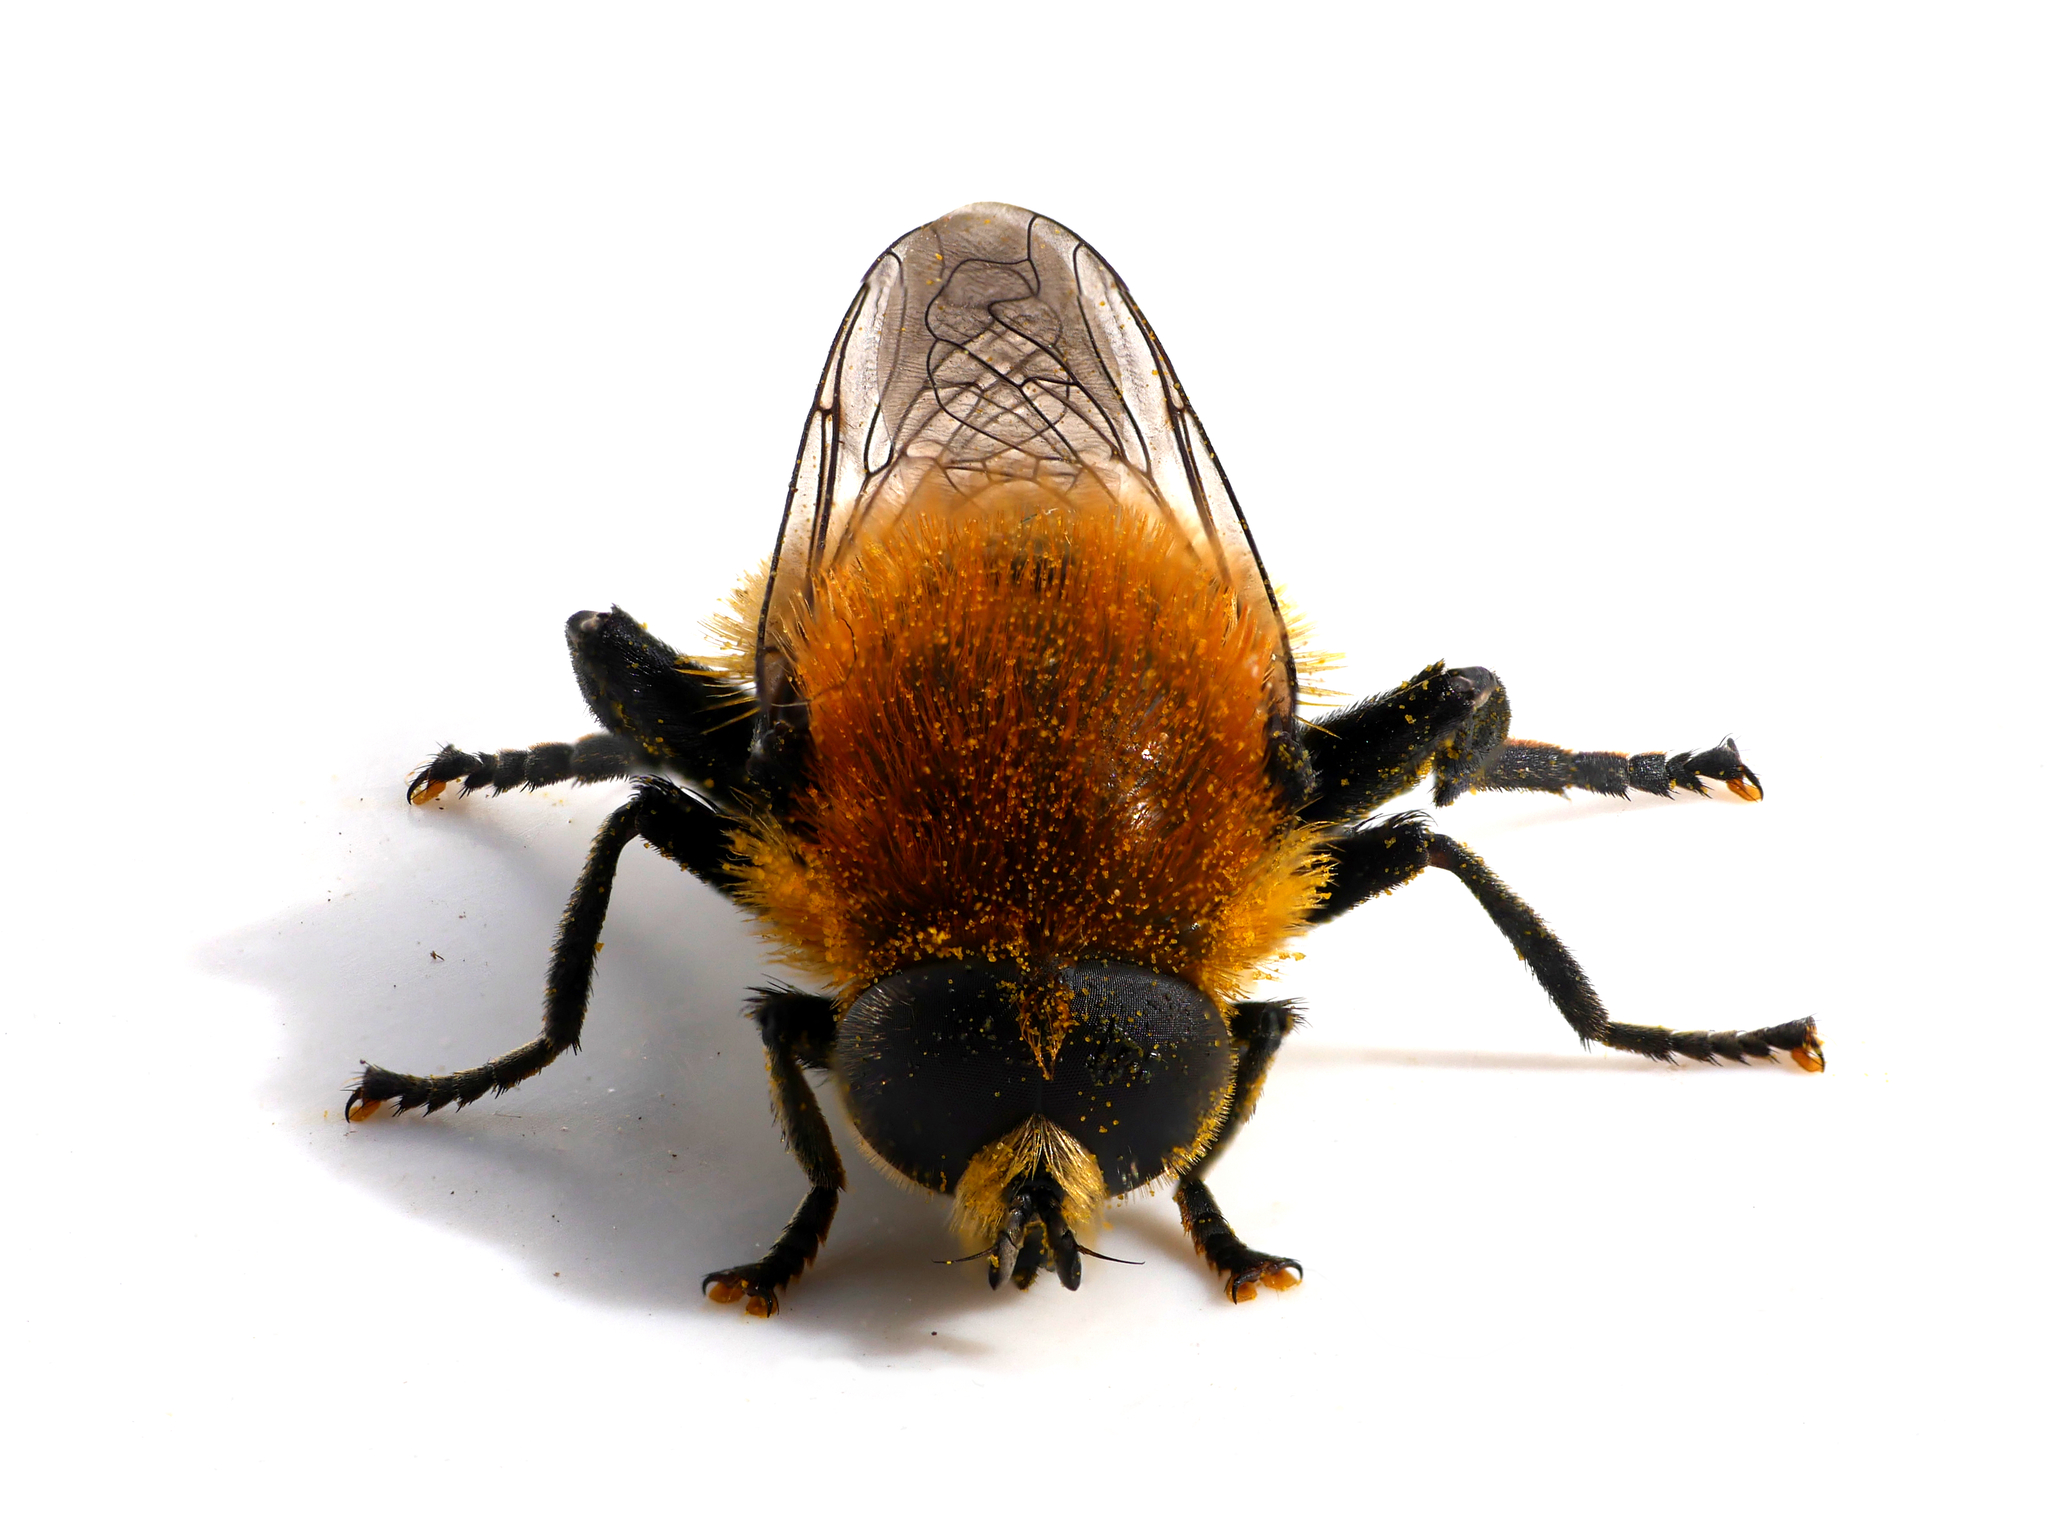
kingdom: Animalia
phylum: Arthropoda
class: Insecta
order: Diptera
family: Syrphidae
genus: Merodon
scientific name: Merodon equestris
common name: Greater bulb-fly
